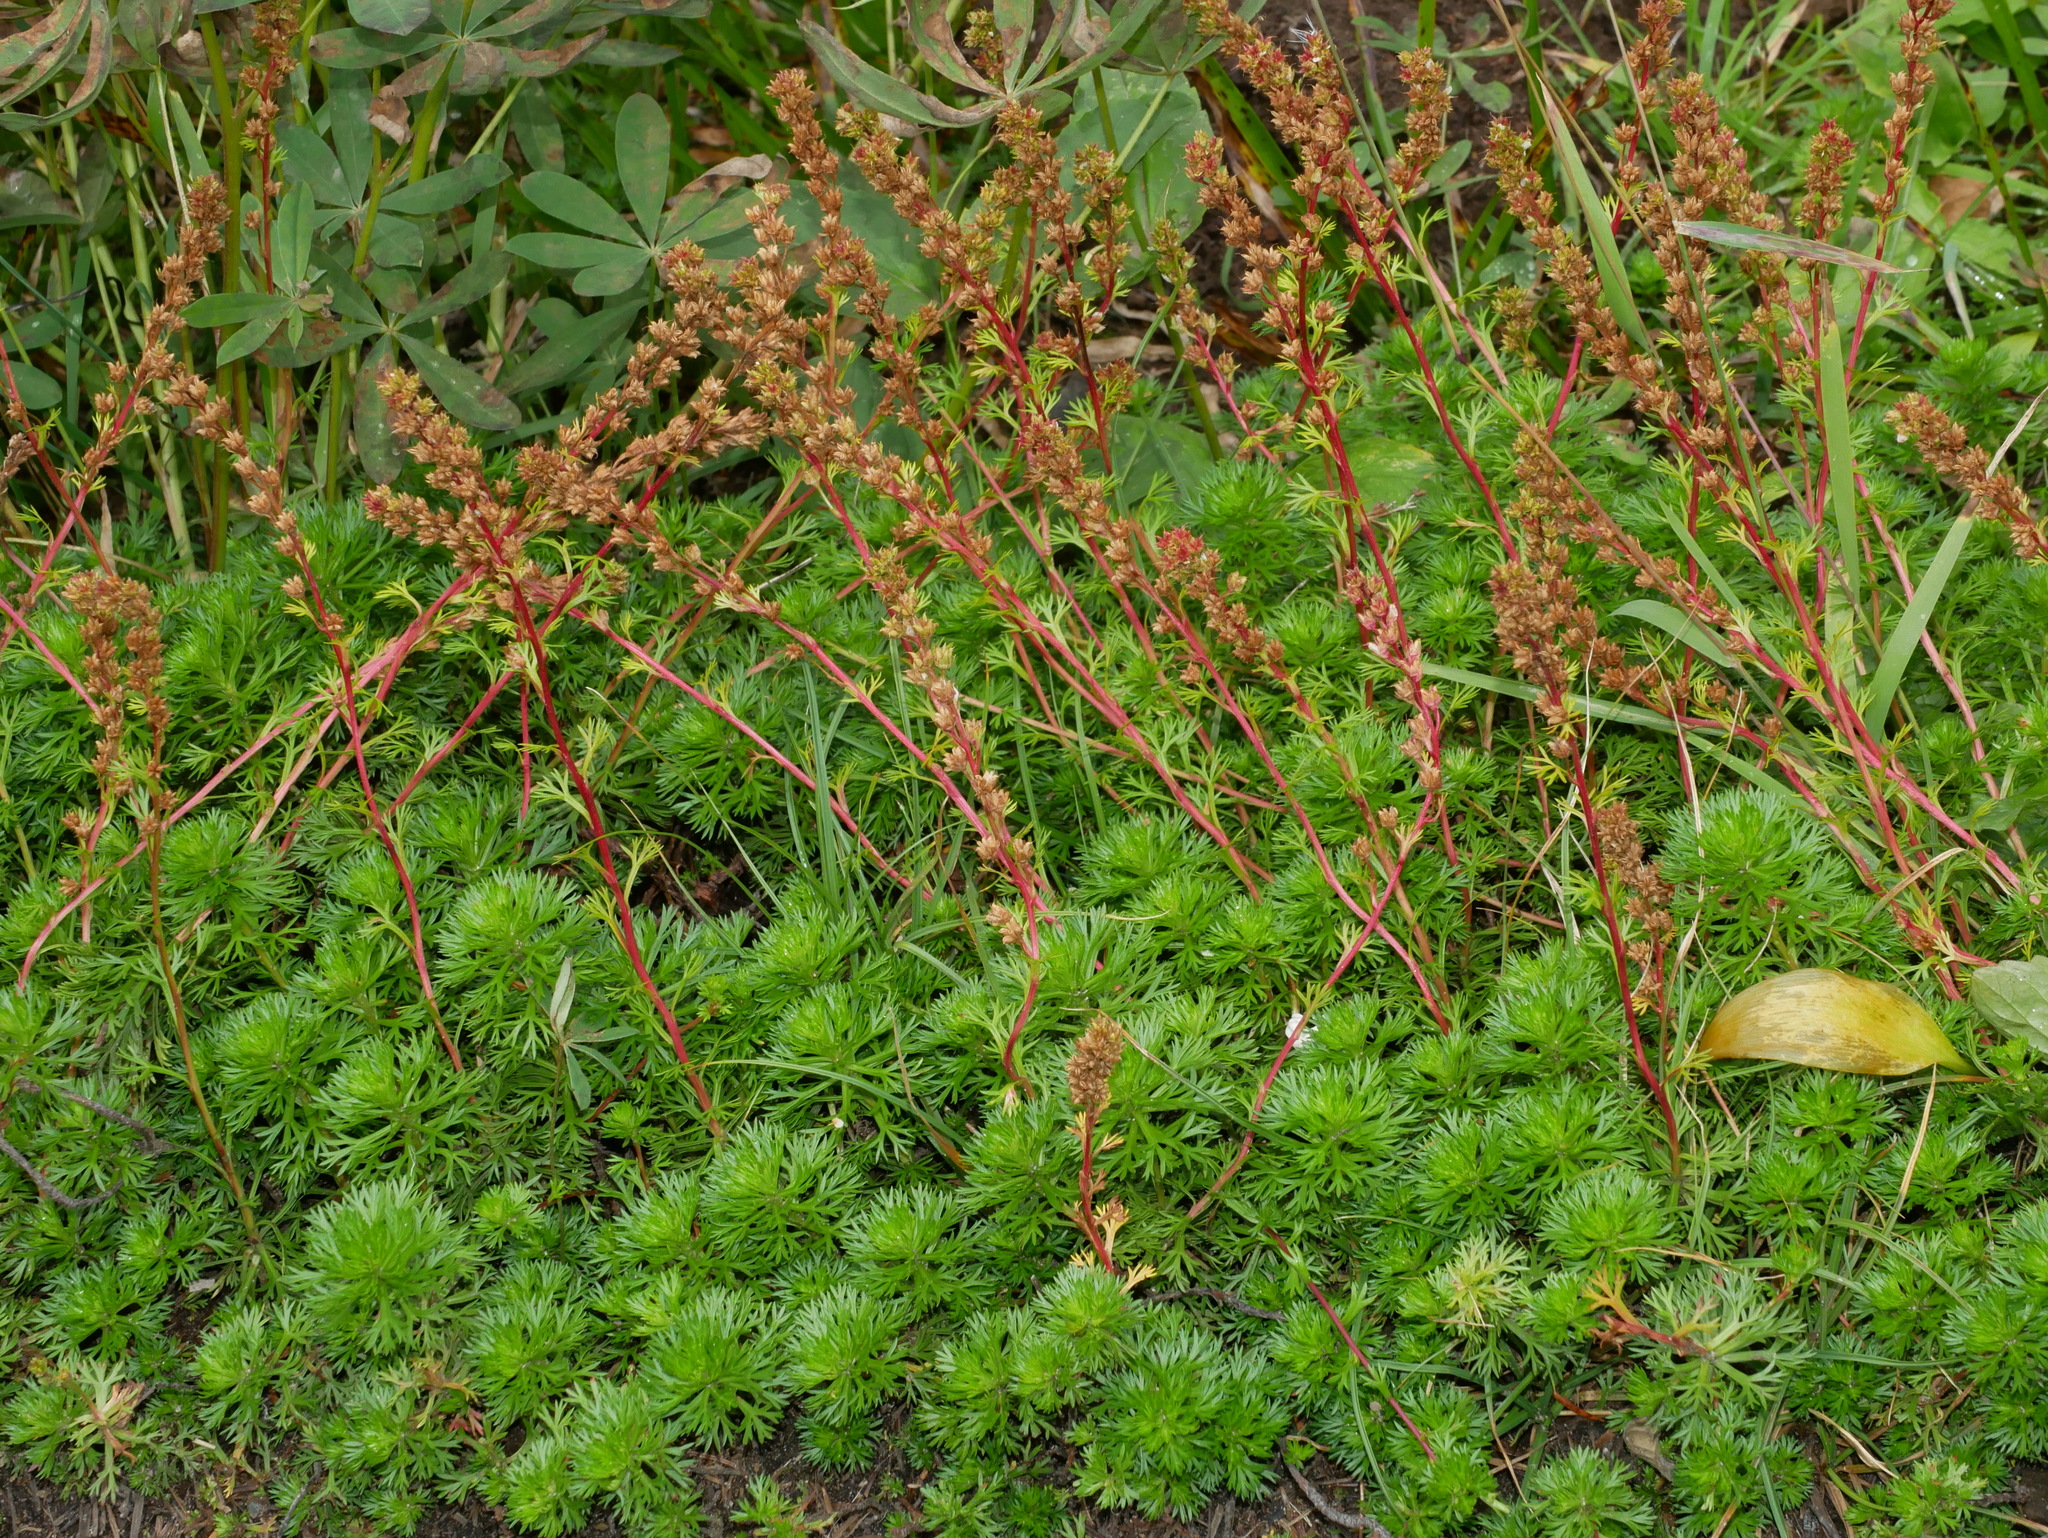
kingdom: Plantae
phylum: Tracheophyta
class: Magnoliopsida
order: Rosales
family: Rosaceae
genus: Luetkea
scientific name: Luetkea pectinata
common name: Partridgefoot
